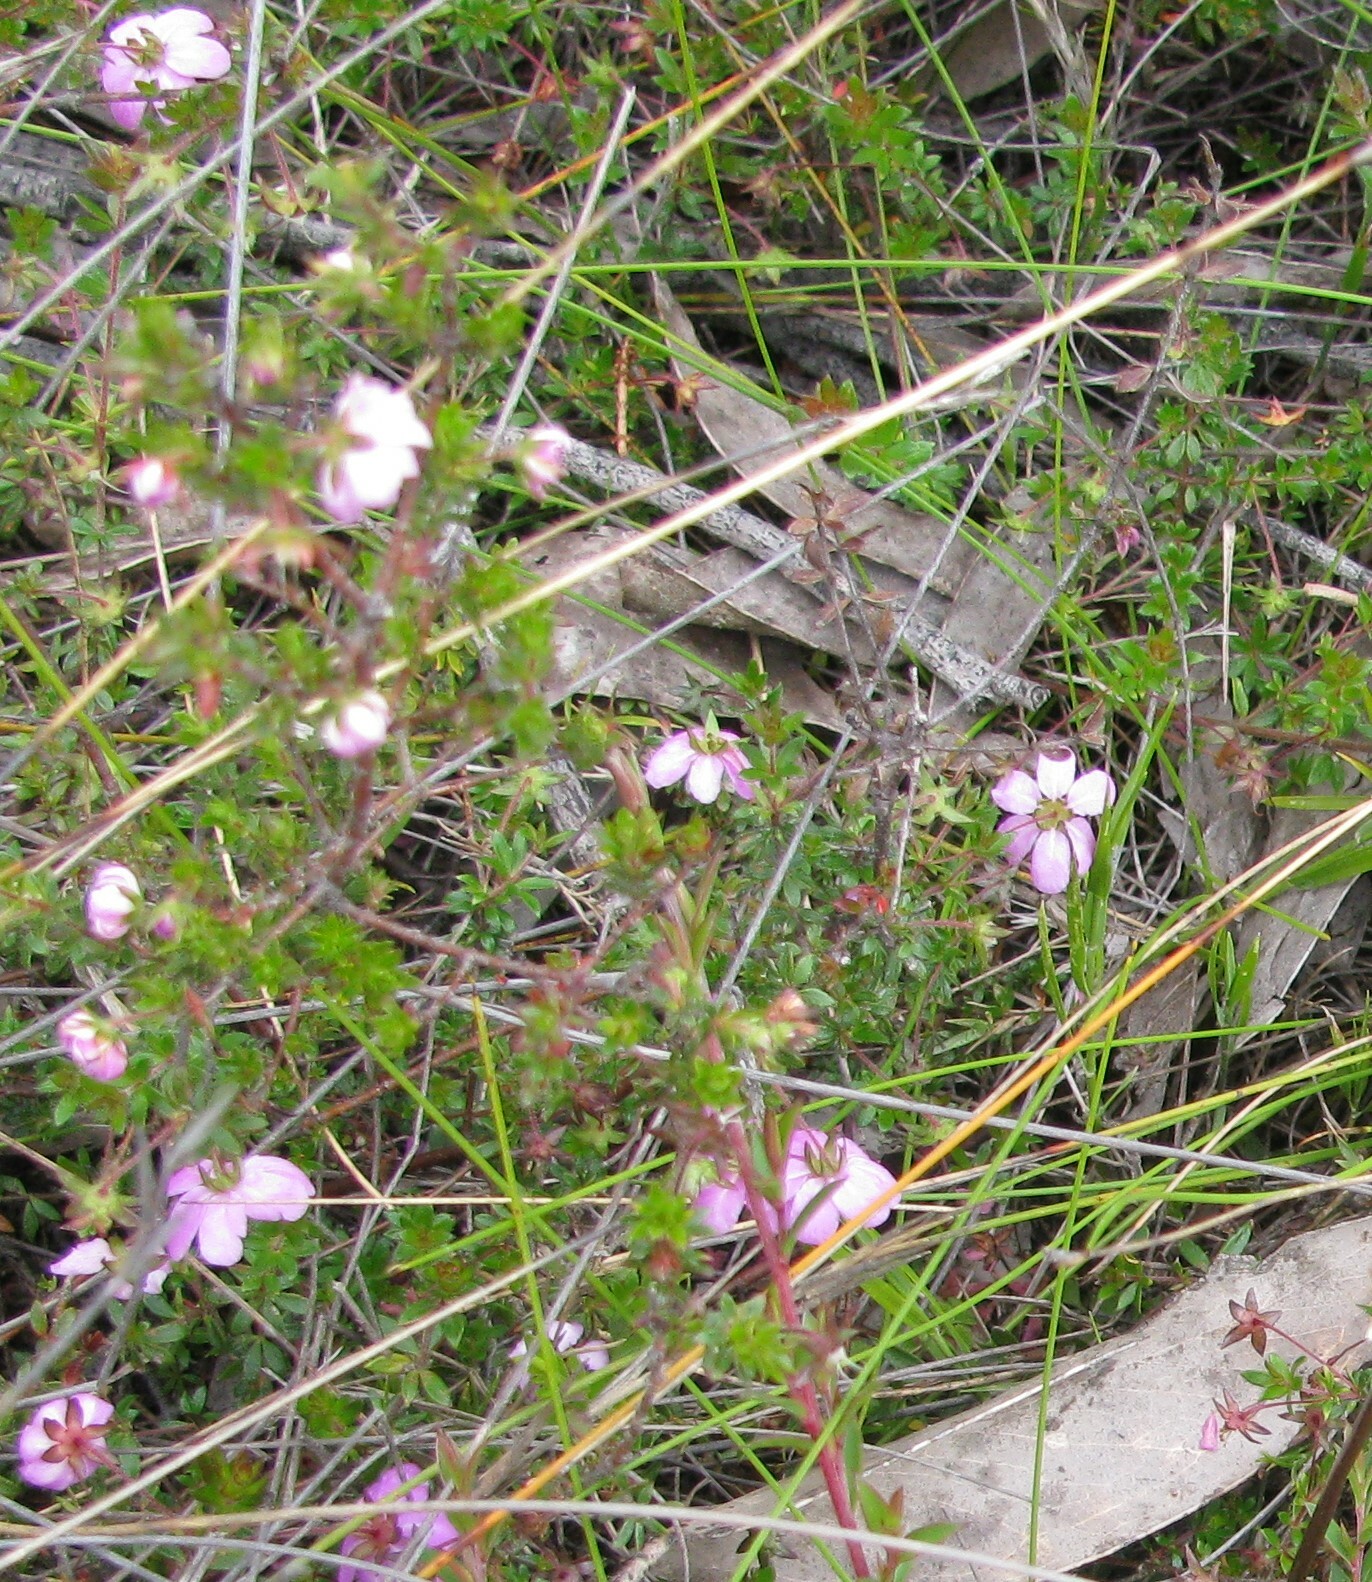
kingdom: Plantae
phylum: Tracheophyta
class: Magnoliopsida
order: Oxalidales
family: Cunoniaceae
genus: Bauera
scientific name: Bauera rubioides
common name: River-rose
